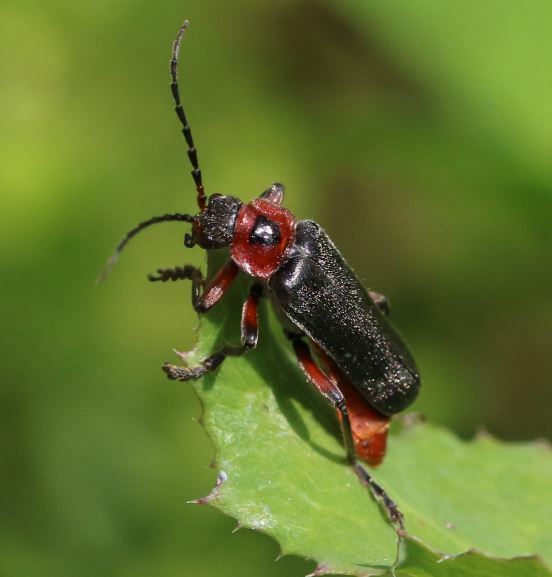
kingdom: Animalia
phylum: Arthropoda
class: Insecta
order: Coleoptera
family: Cantharidae
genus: Cantharis
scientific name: Cantharis rustica
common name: Soldier beetle
